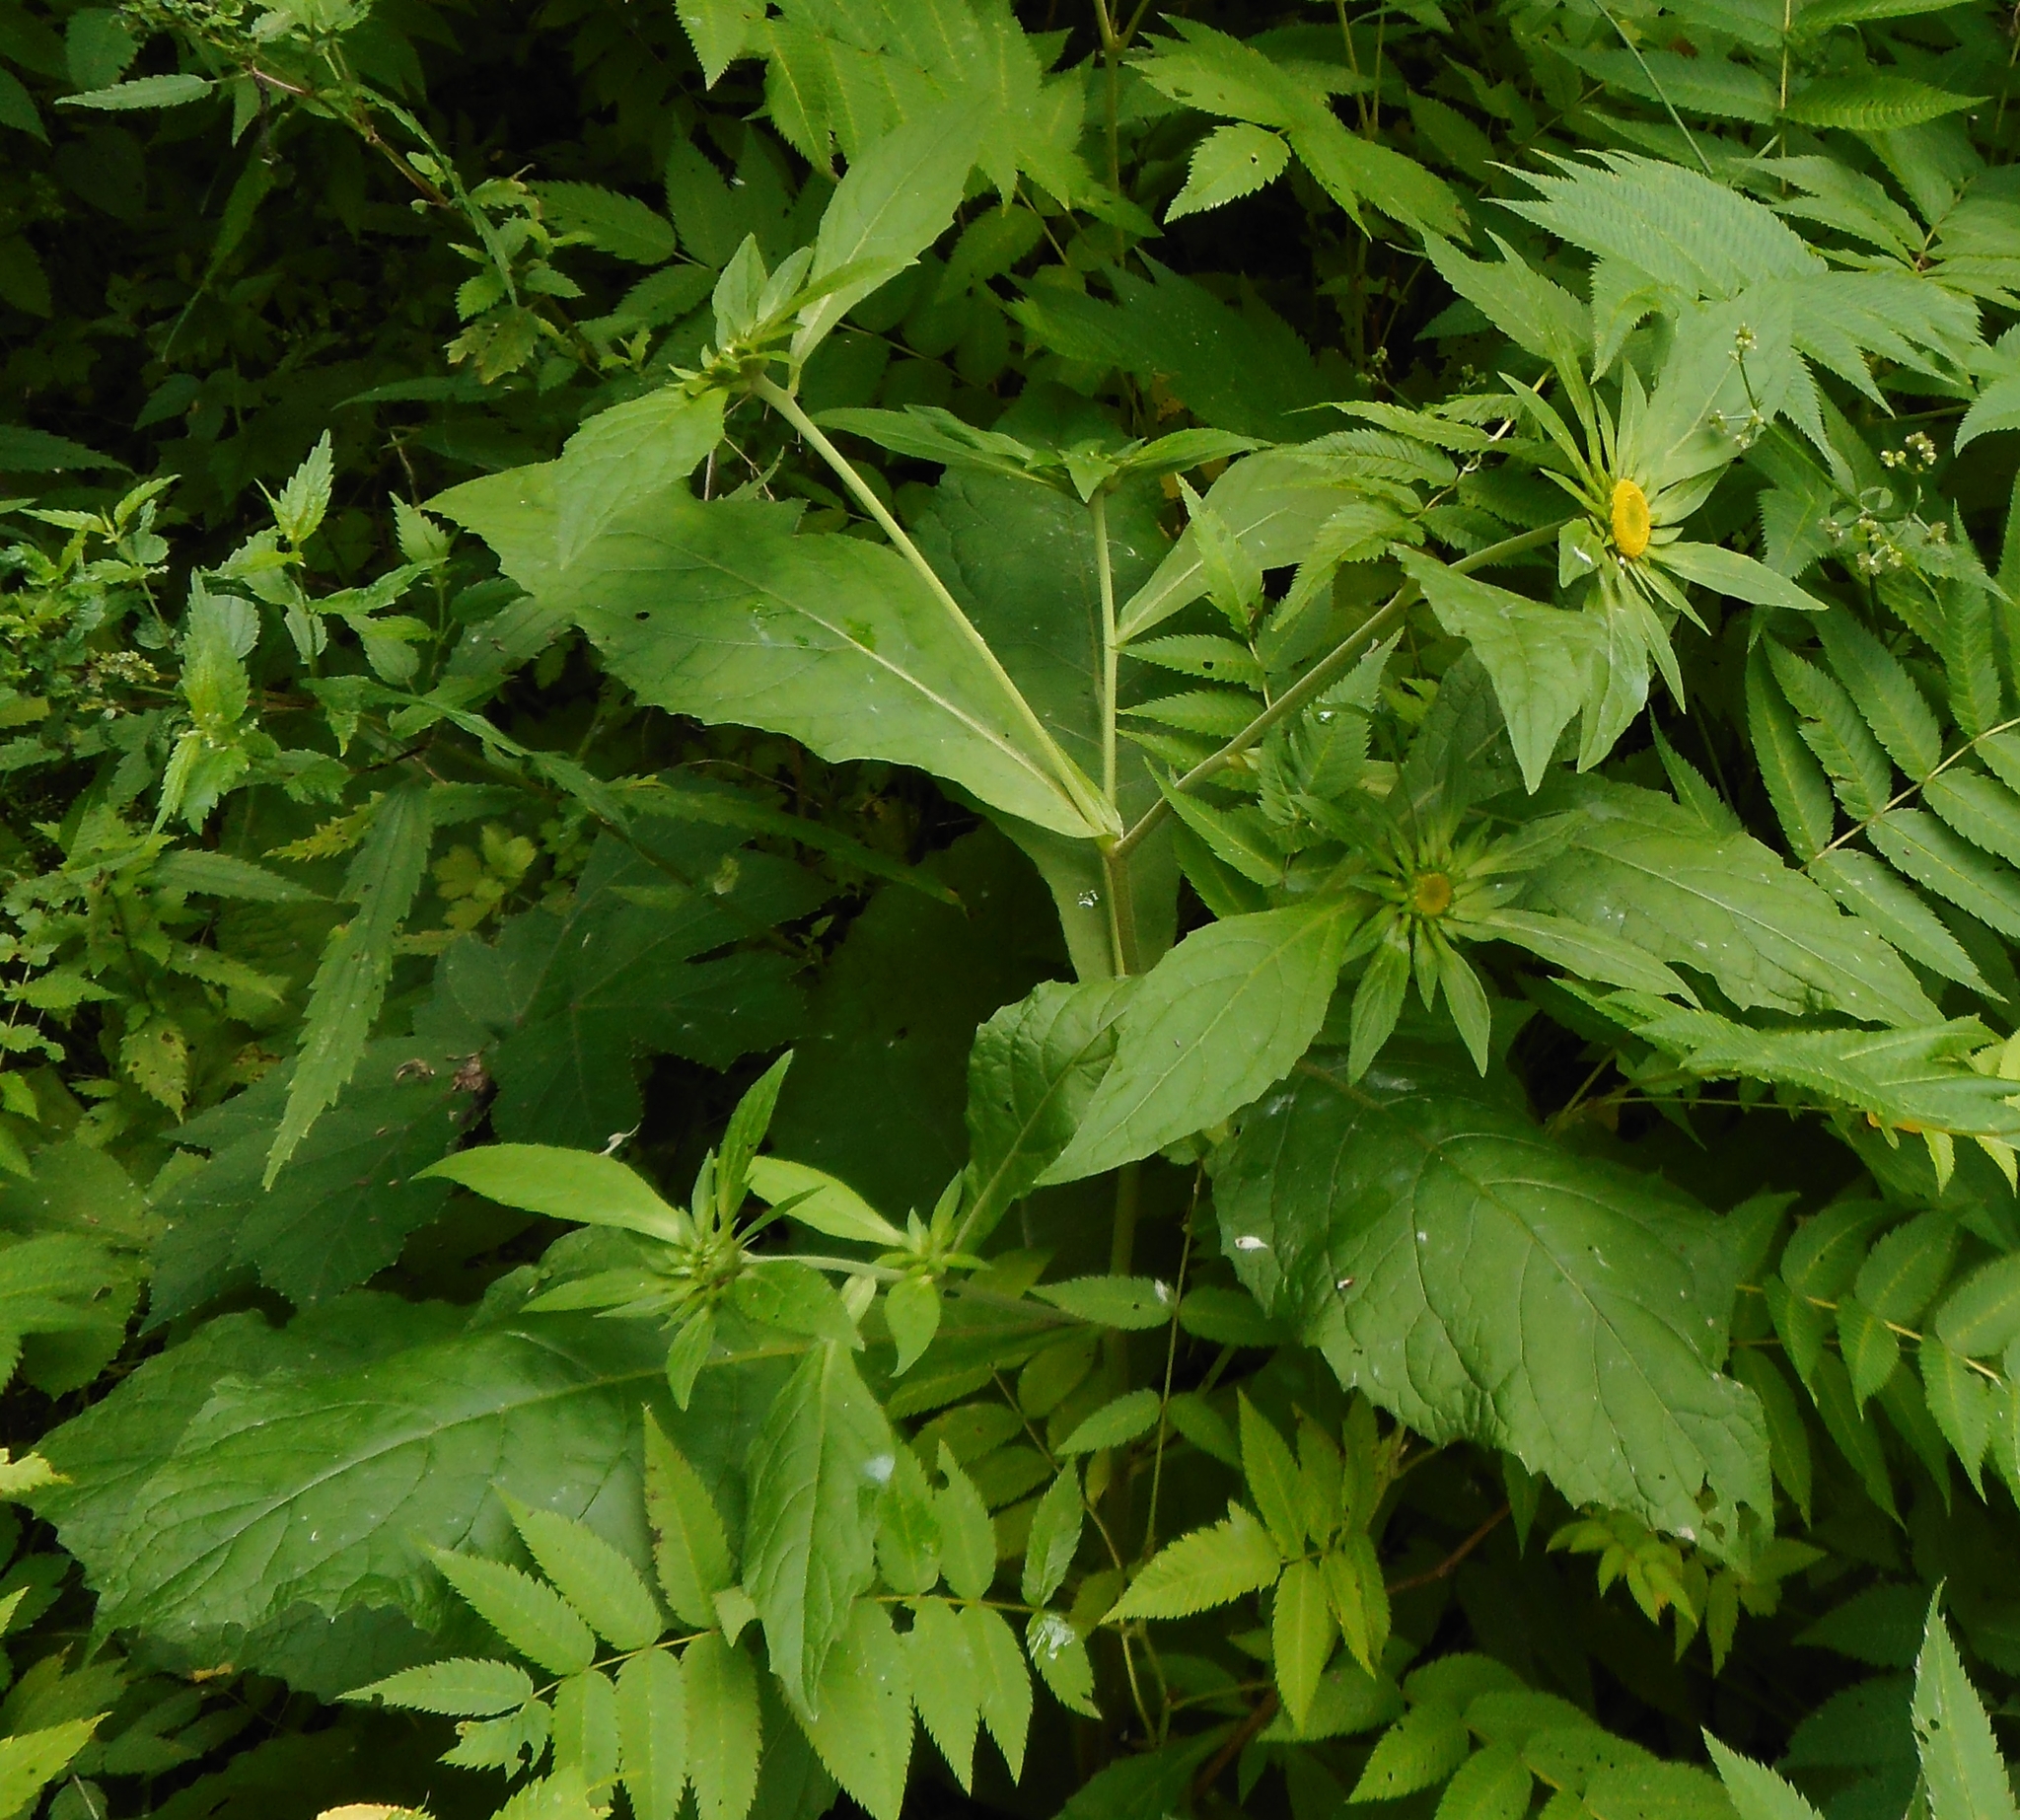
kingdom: Plantae
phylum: Tracheophyta
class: Magnoliopsida
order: Asterales
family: Asteraceae
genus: Carpesium
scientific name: Carpesium macrocephalum
